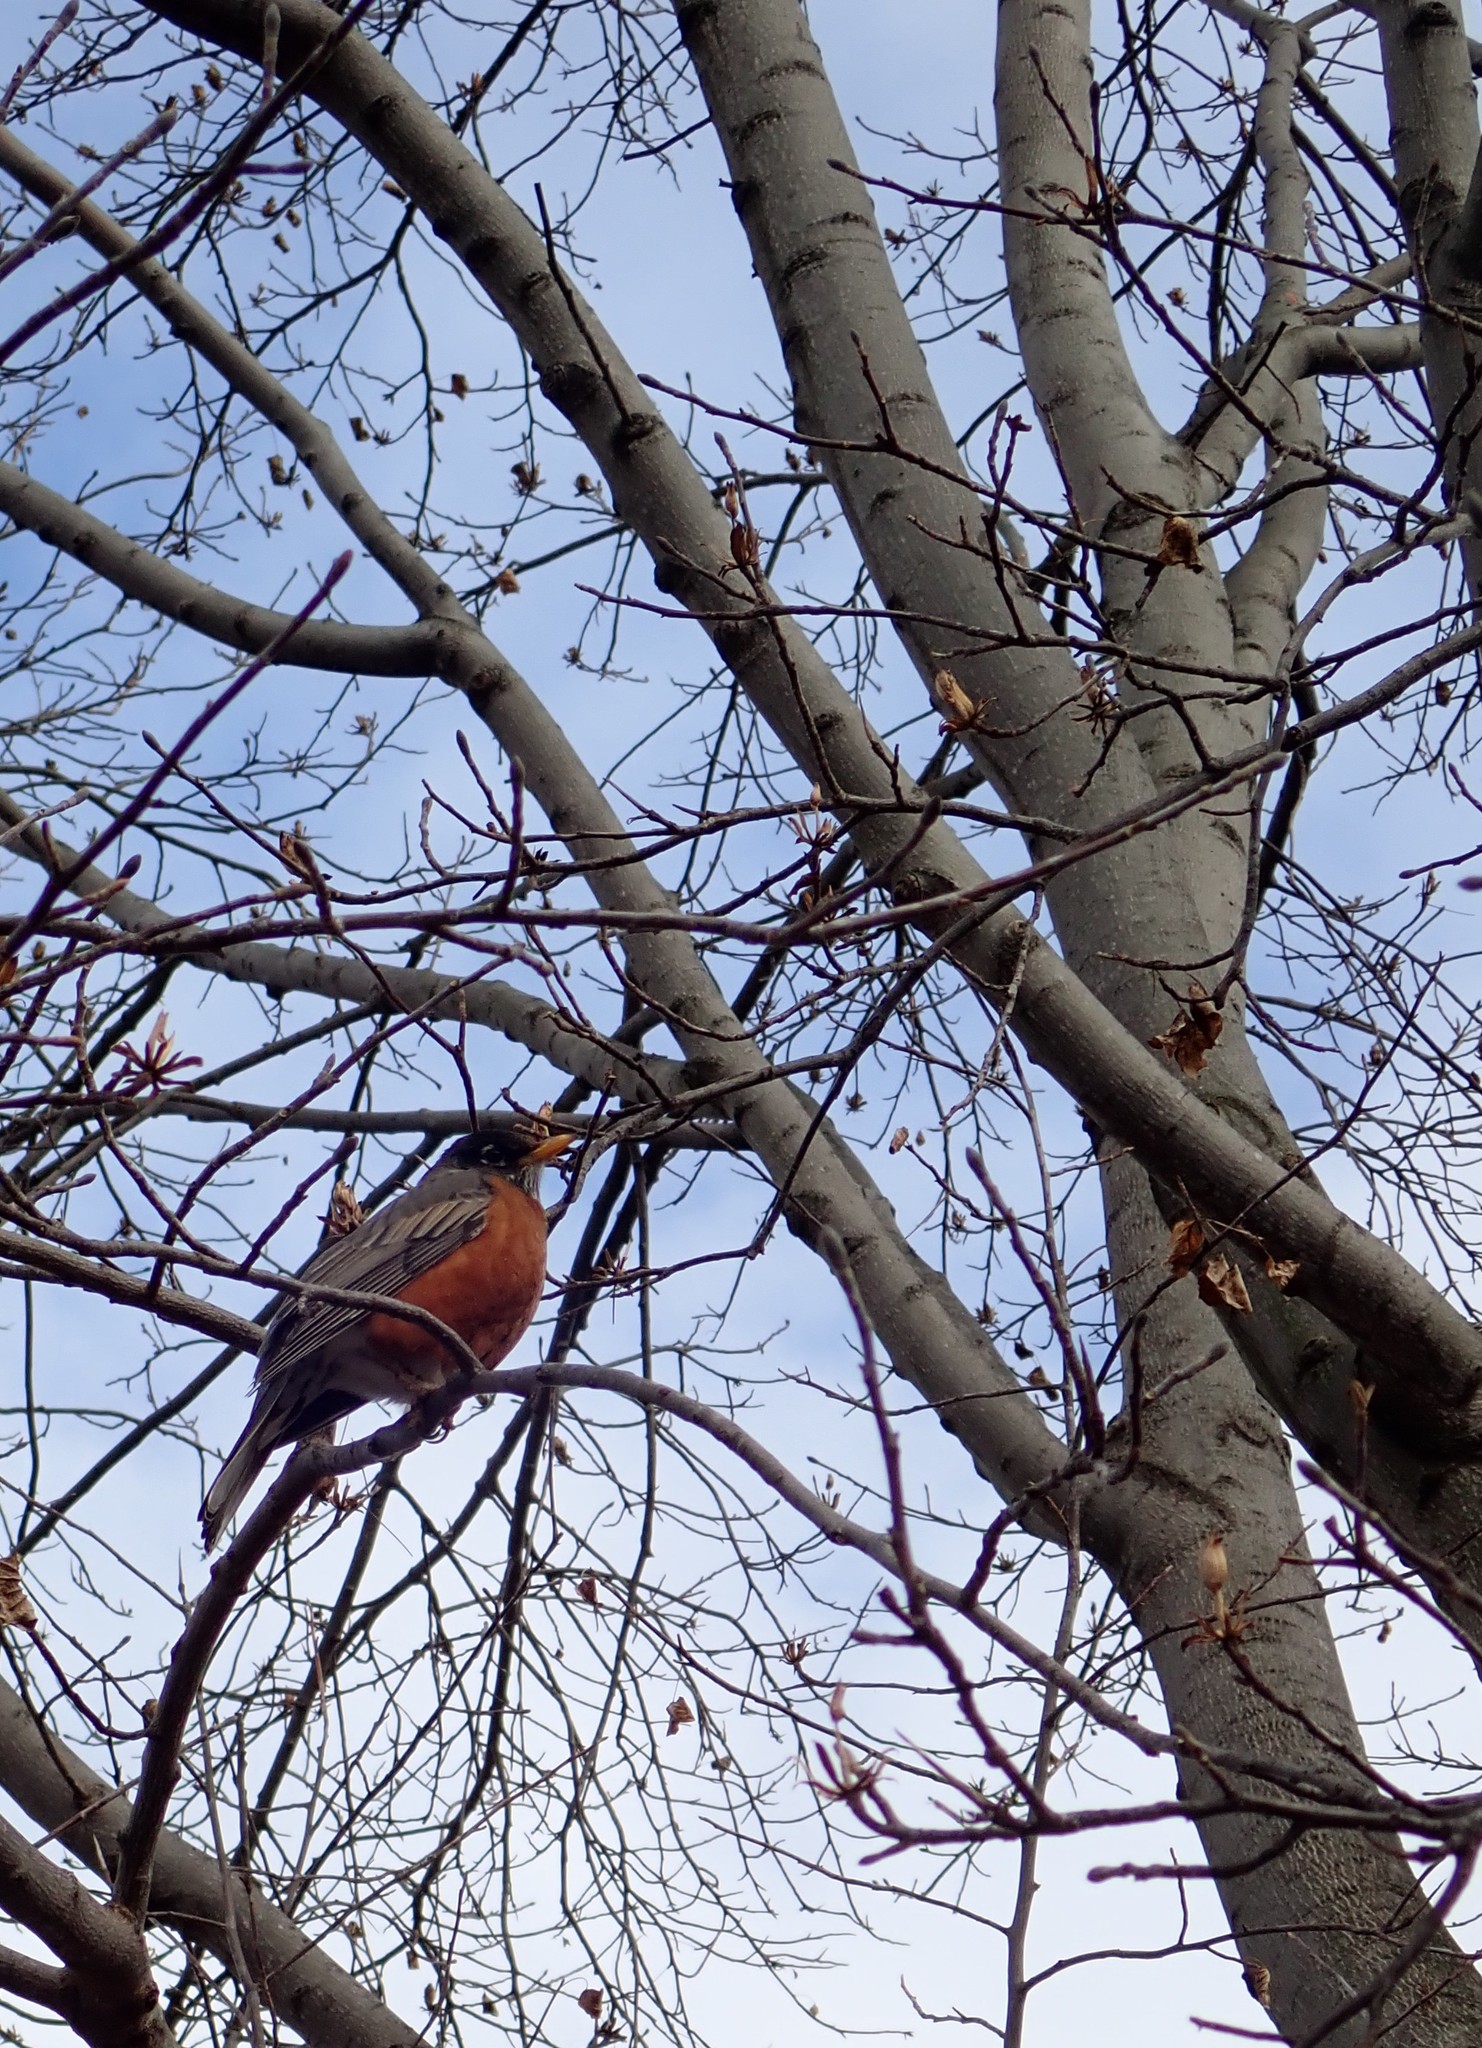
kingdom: Animalia
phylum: Chordata
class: Aves
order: Passeriformes
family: Turdidae
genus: Turdus
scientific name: Turdus migratorius
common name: American robin
